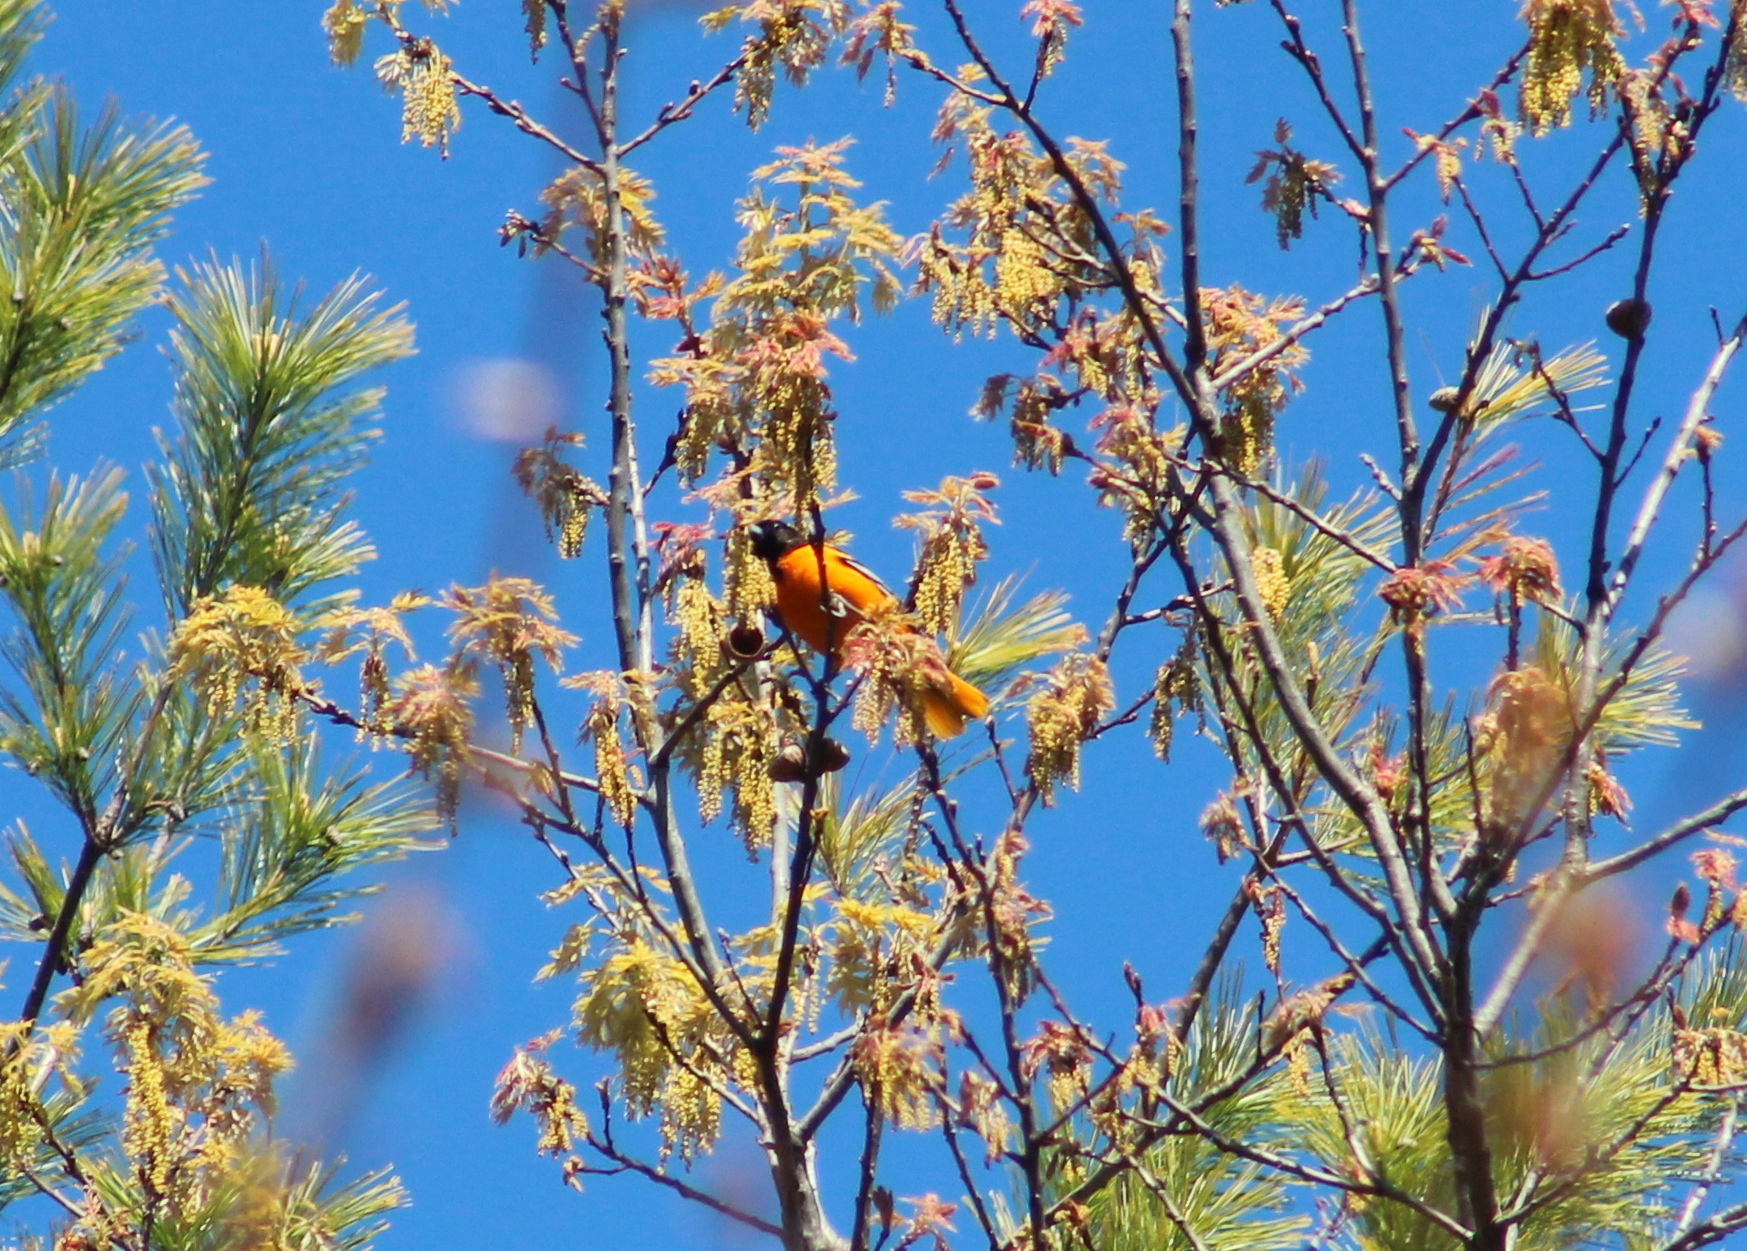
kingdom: Animalia
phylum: Chordata
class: Aves
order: Passeriformes
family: Icteridae
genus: Icterus
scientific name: Icterus galbula
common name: Baltimore oriole
